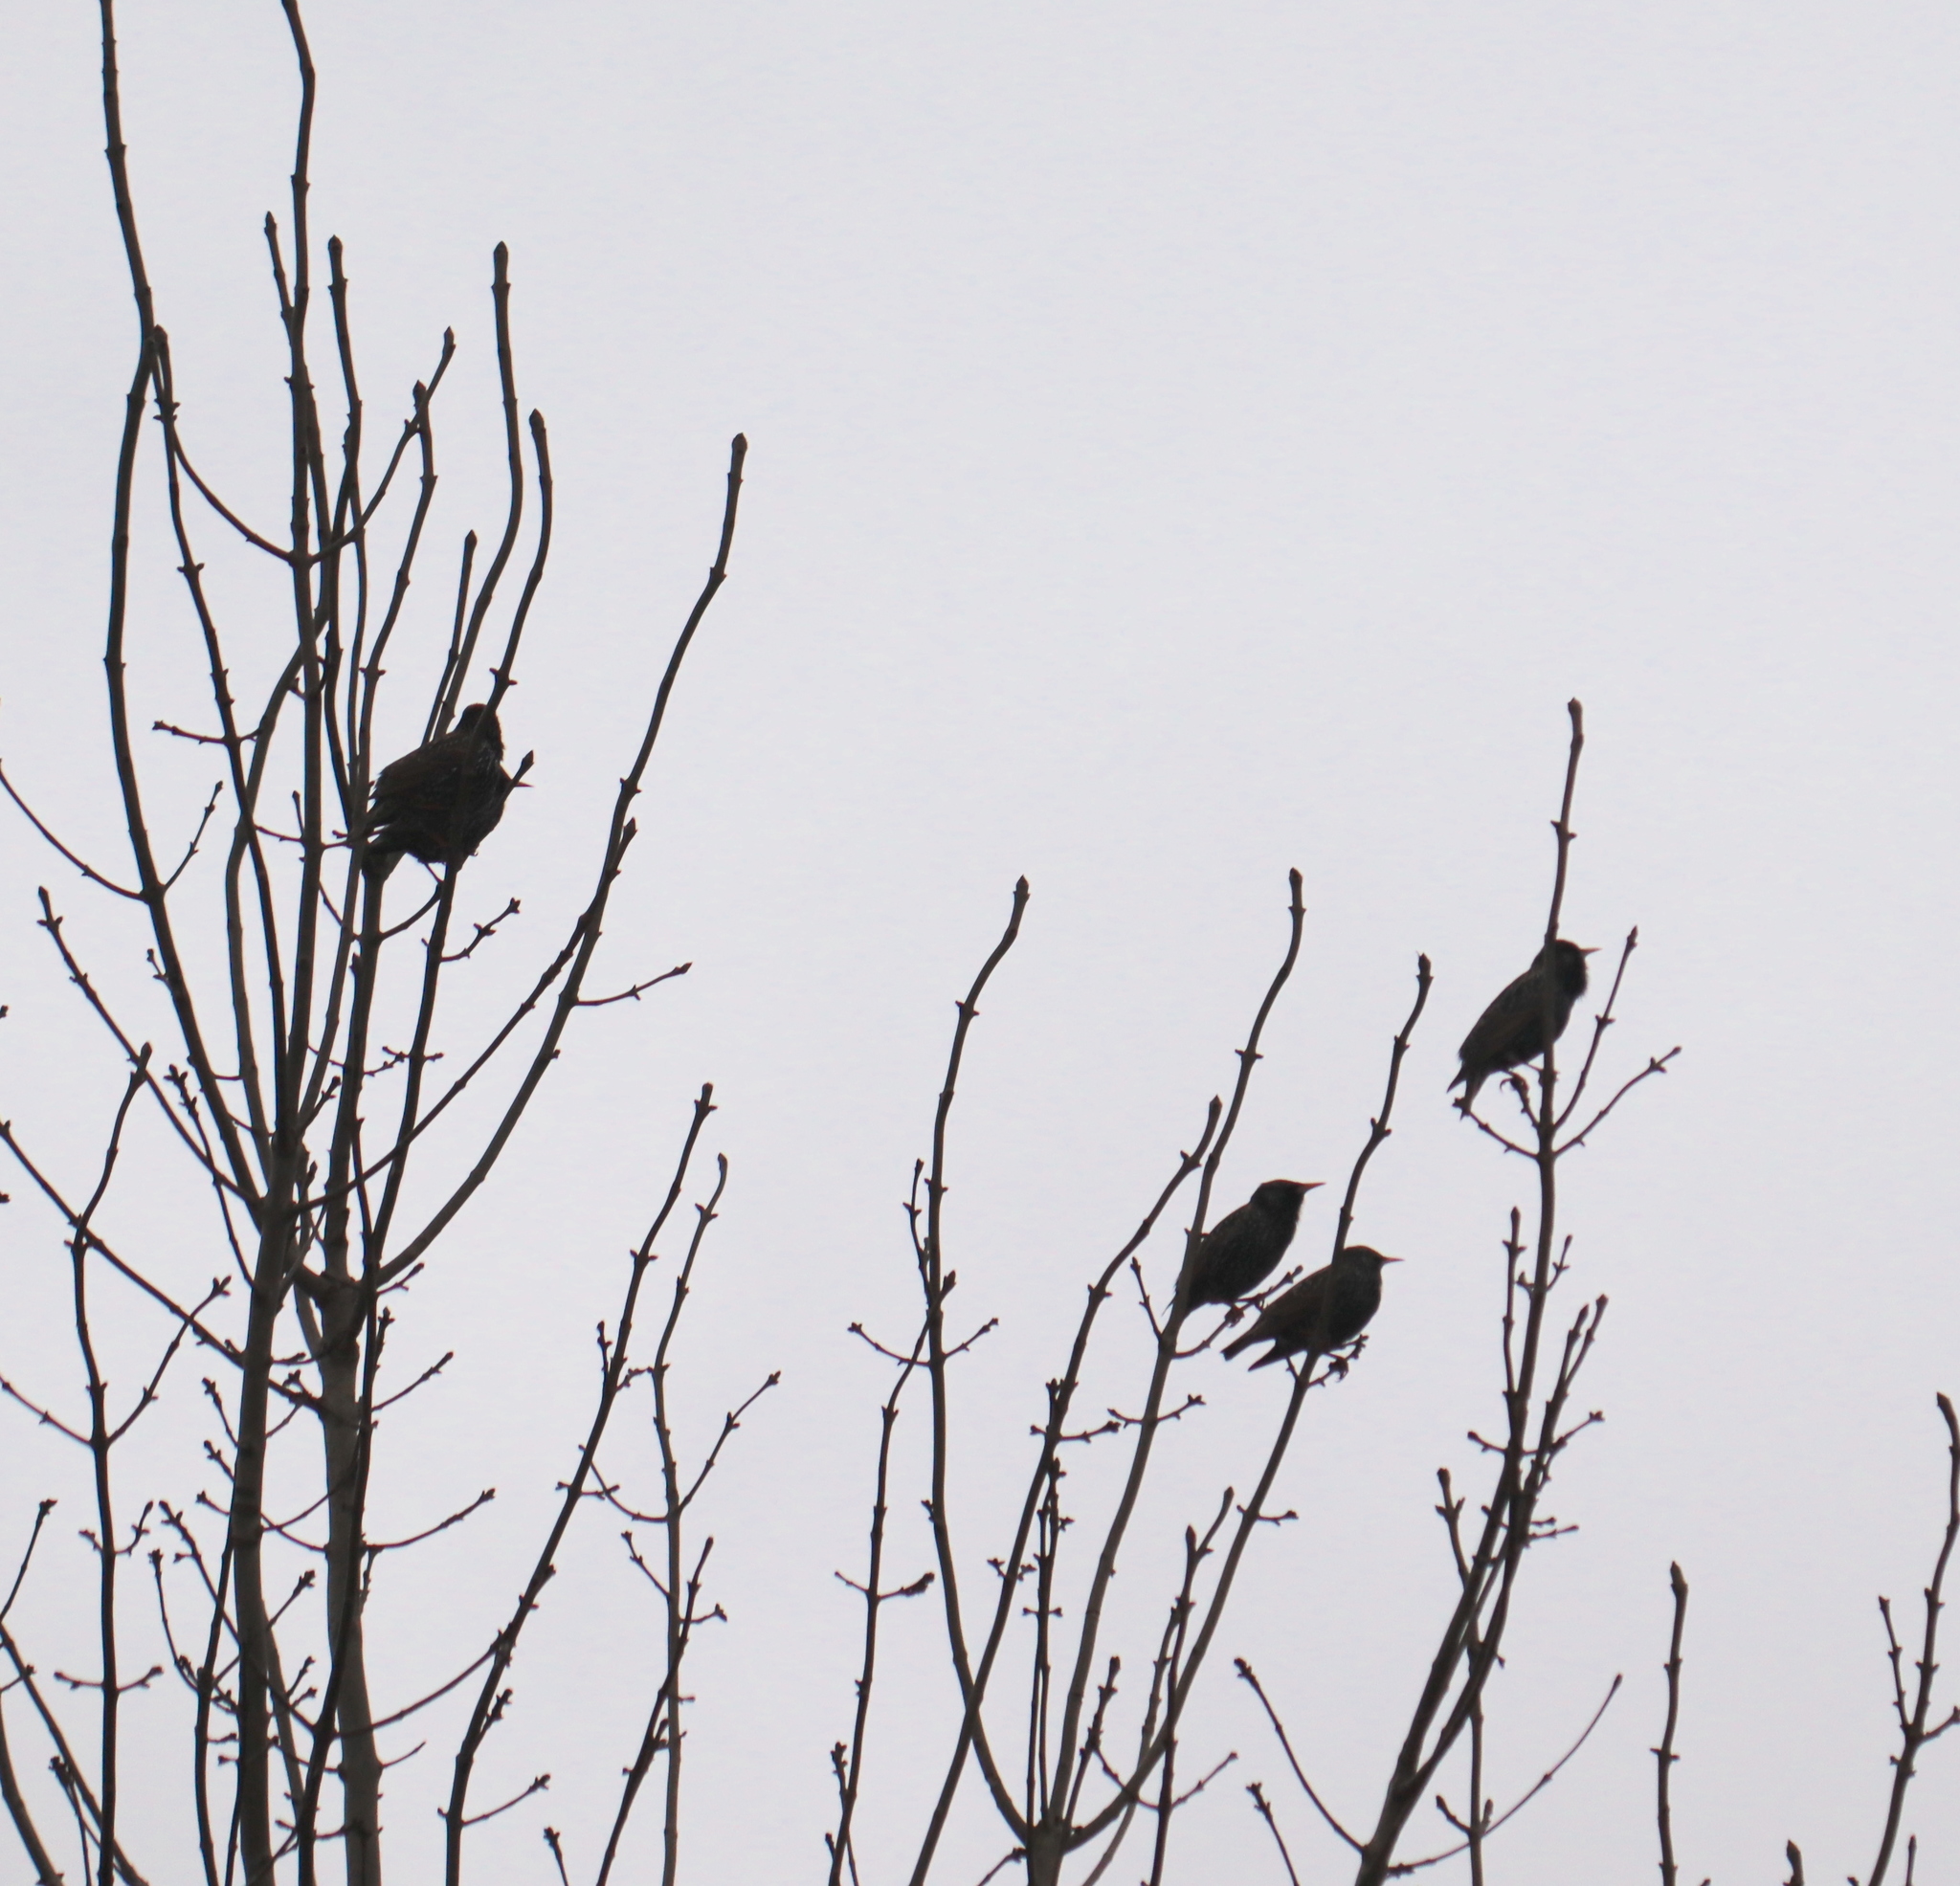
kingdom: Animalia
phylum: Chordata
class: Aves
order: Passeriformes
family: Sturnidae
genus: Sturnus
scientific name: Sturnus vulgaris
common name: Common starling
